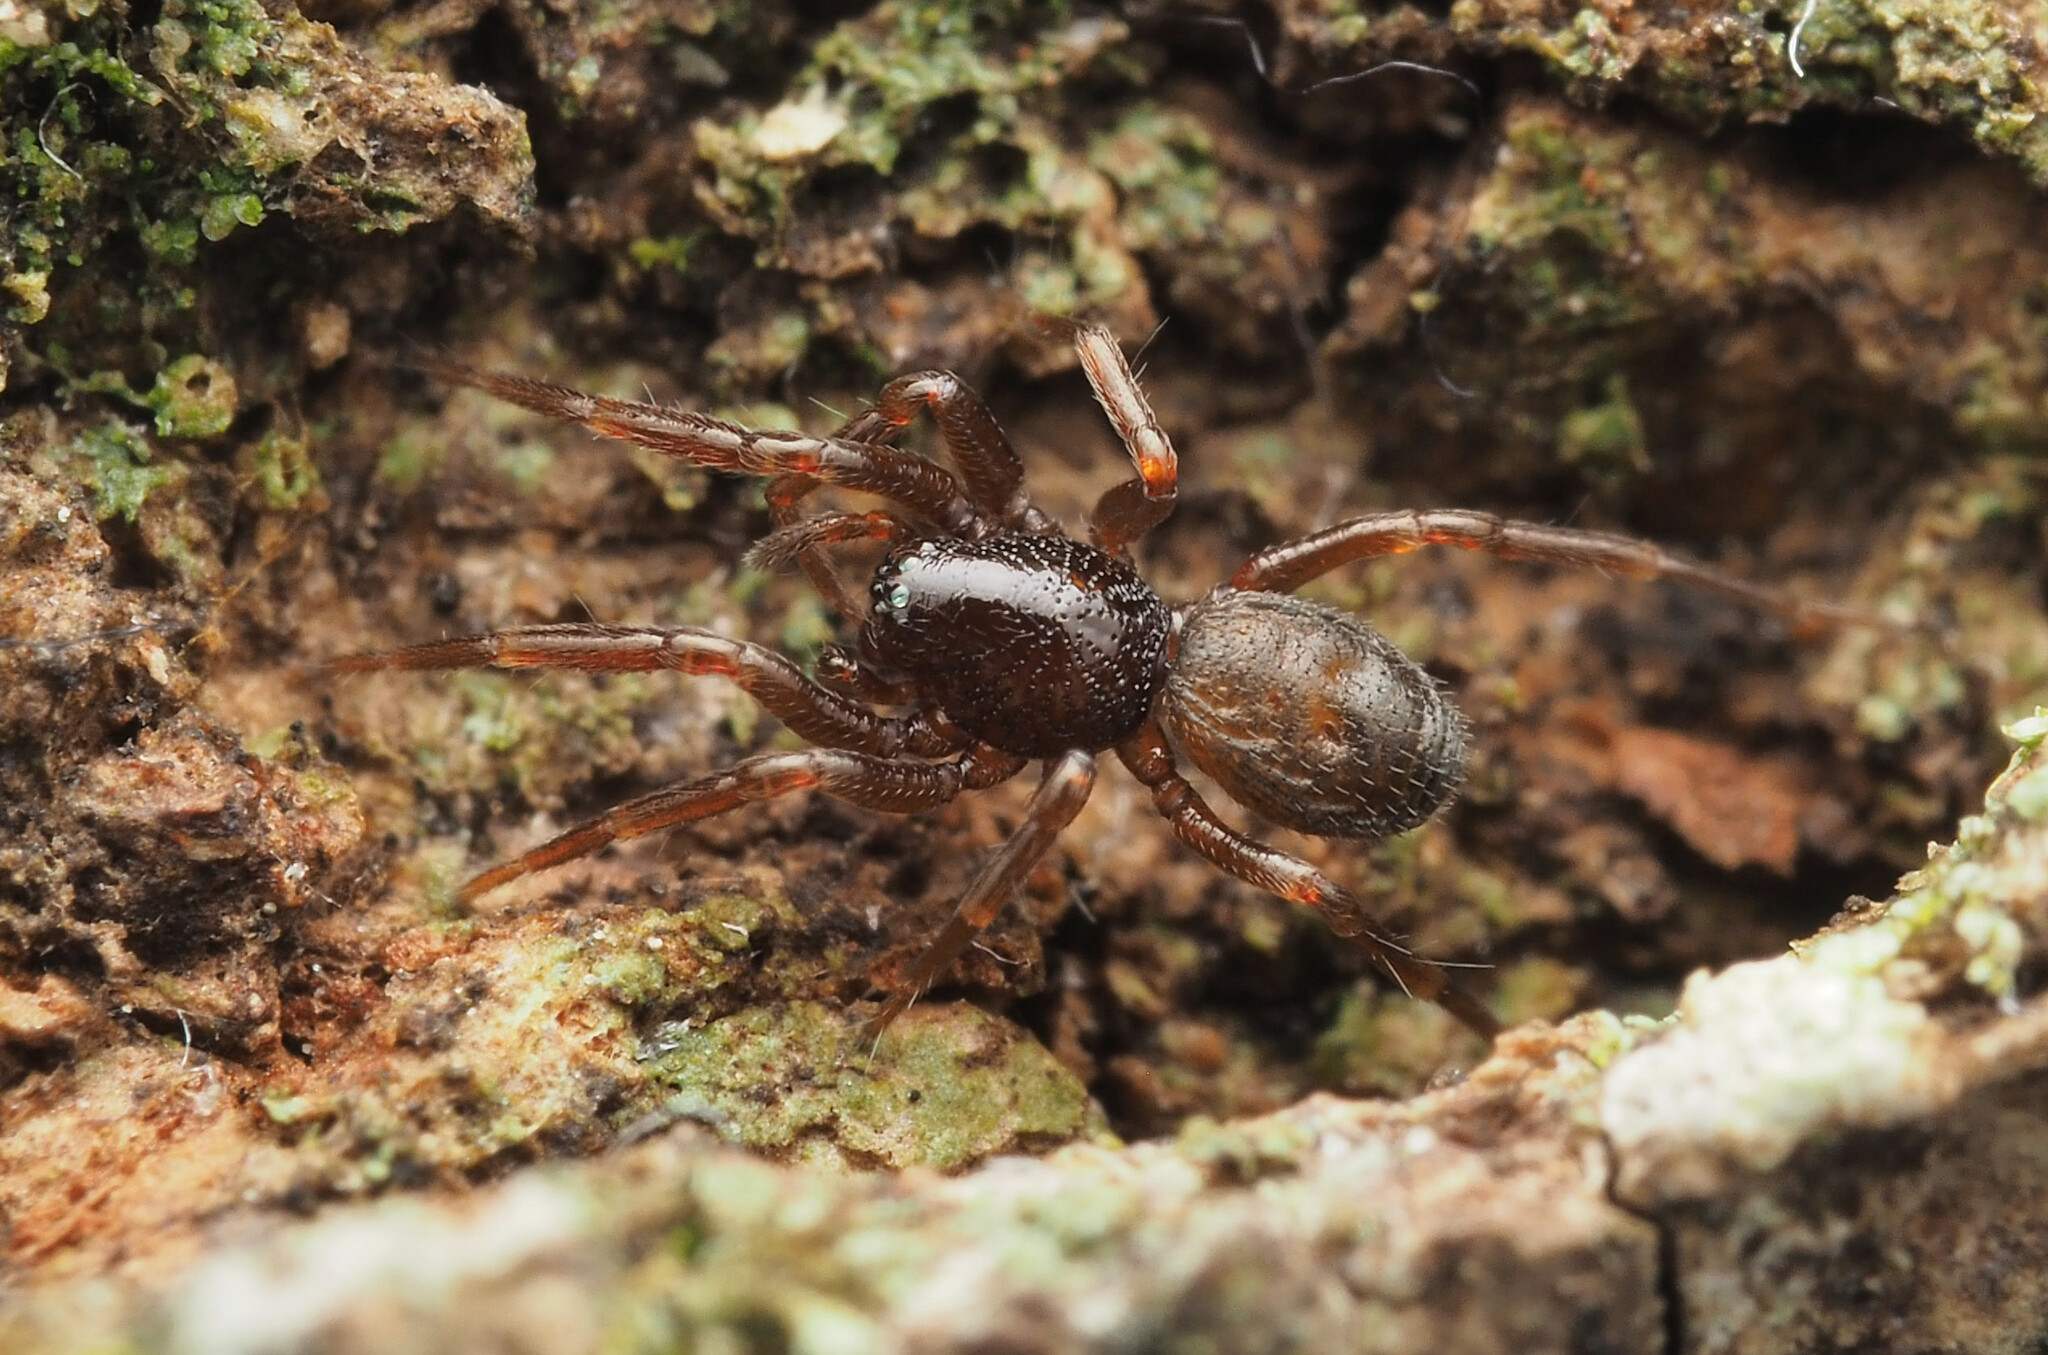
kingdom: Animalia
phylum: Arthropoda
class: Arachnida
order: Araneae
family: Trachelidae
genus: Orthobula
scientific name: Orthobula
